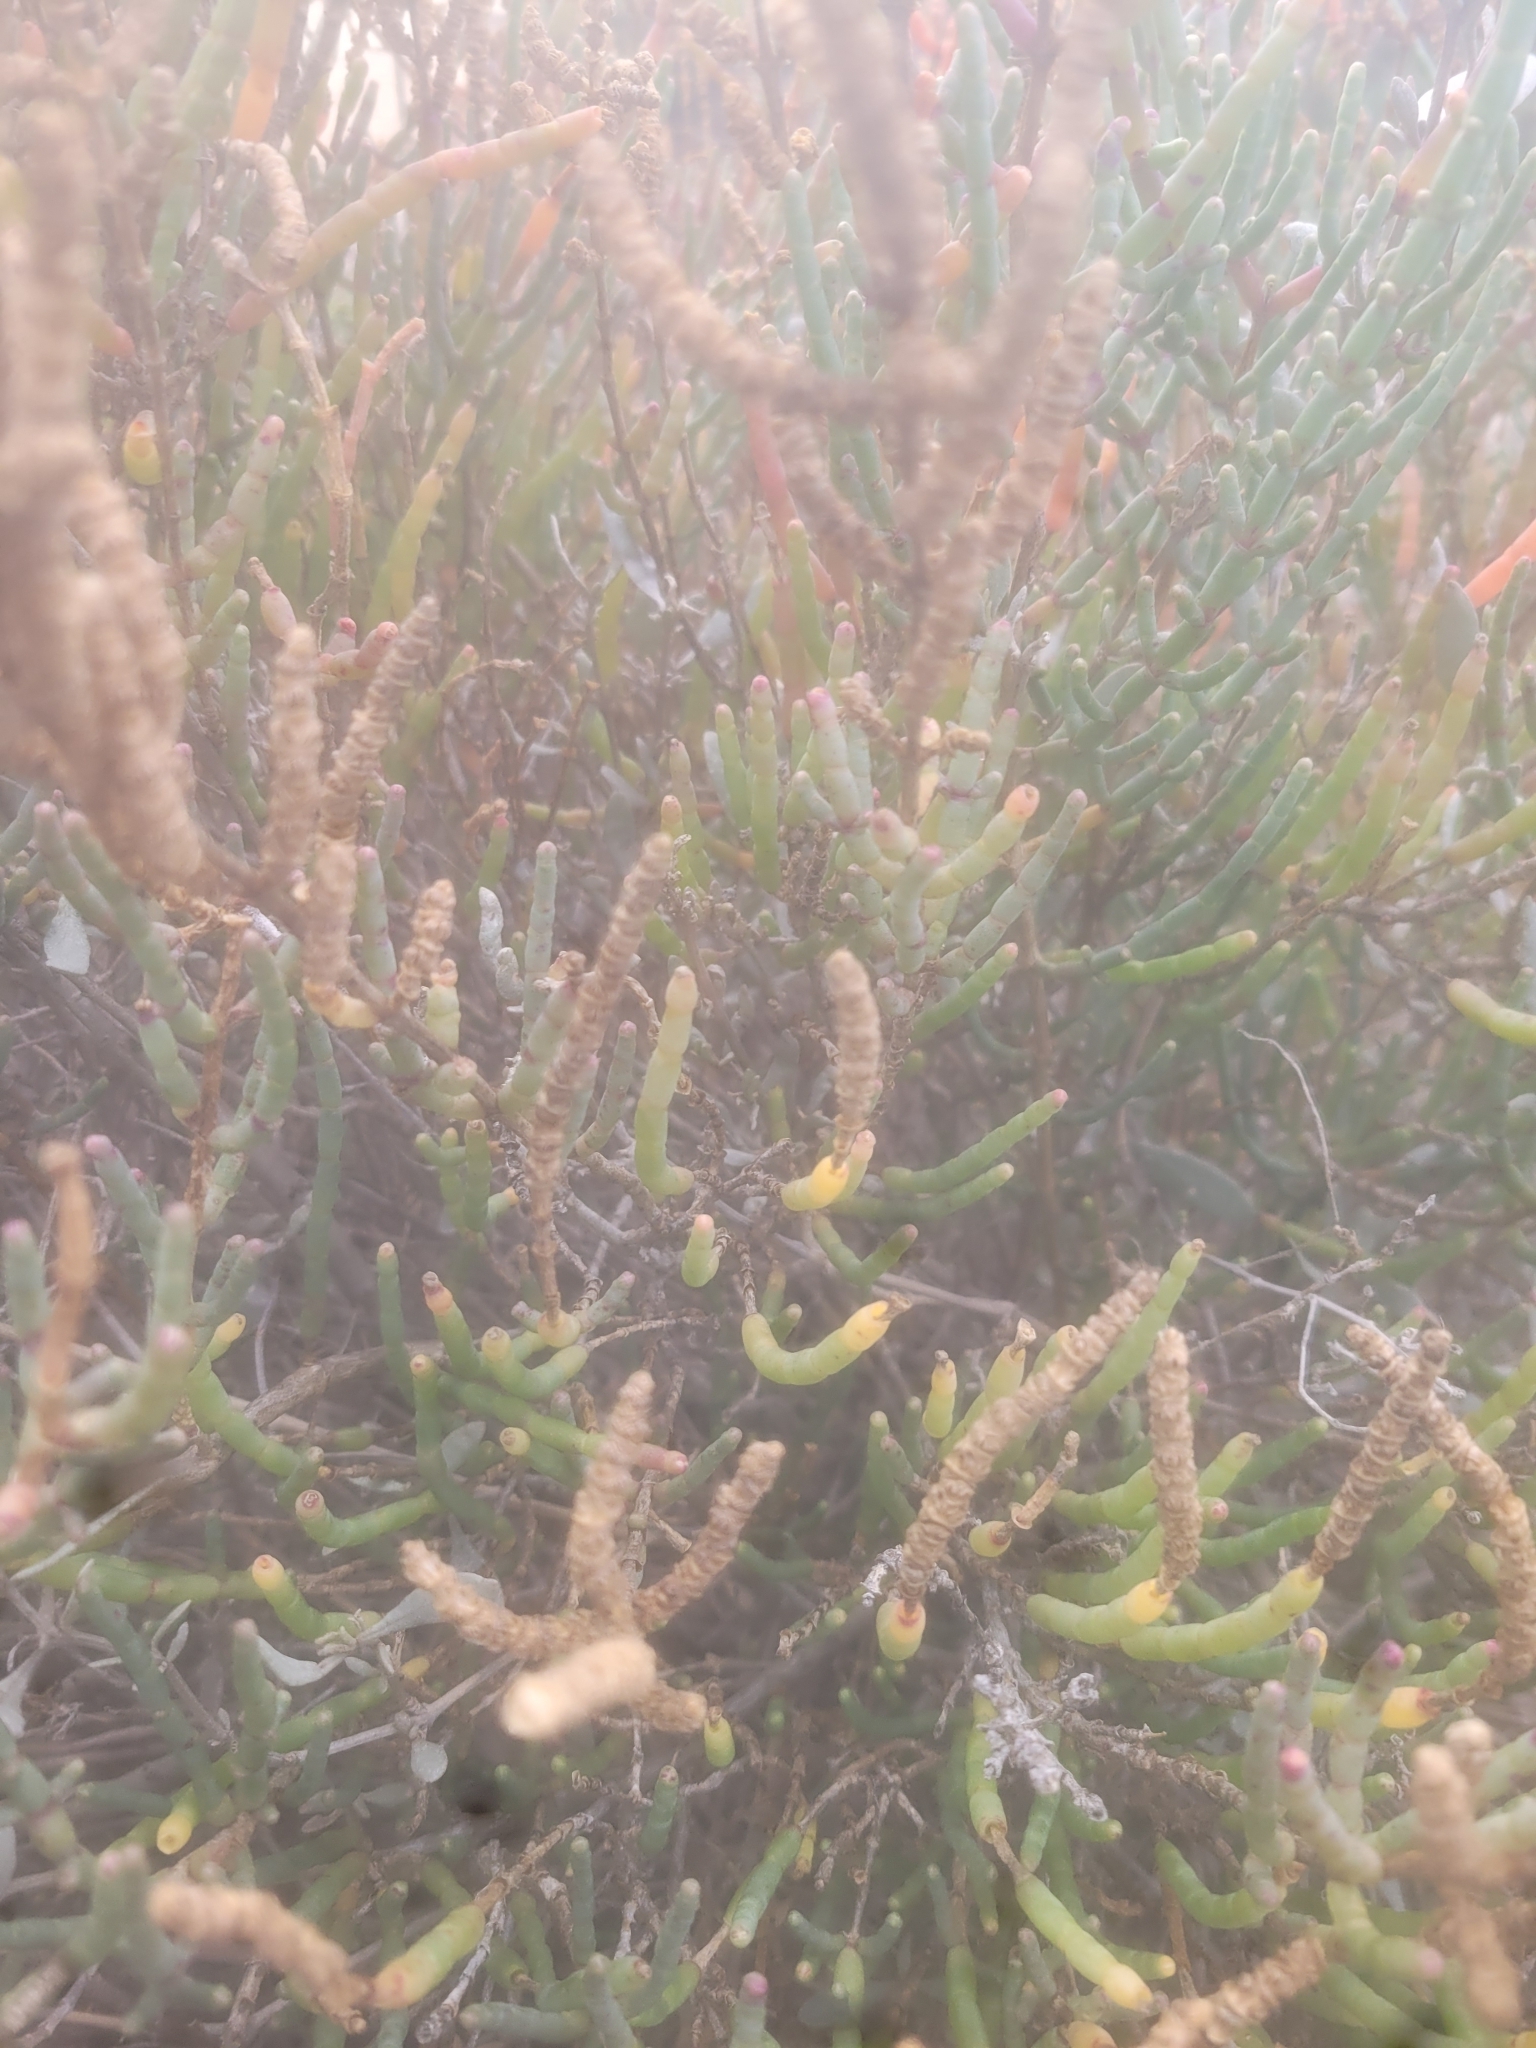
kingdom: Plantae
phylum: Tracheophyta
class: Magnoliopsida
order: Caryophyllales
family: Amaranthaceae
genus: Salicornia
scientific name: Salicornia fruticosa
